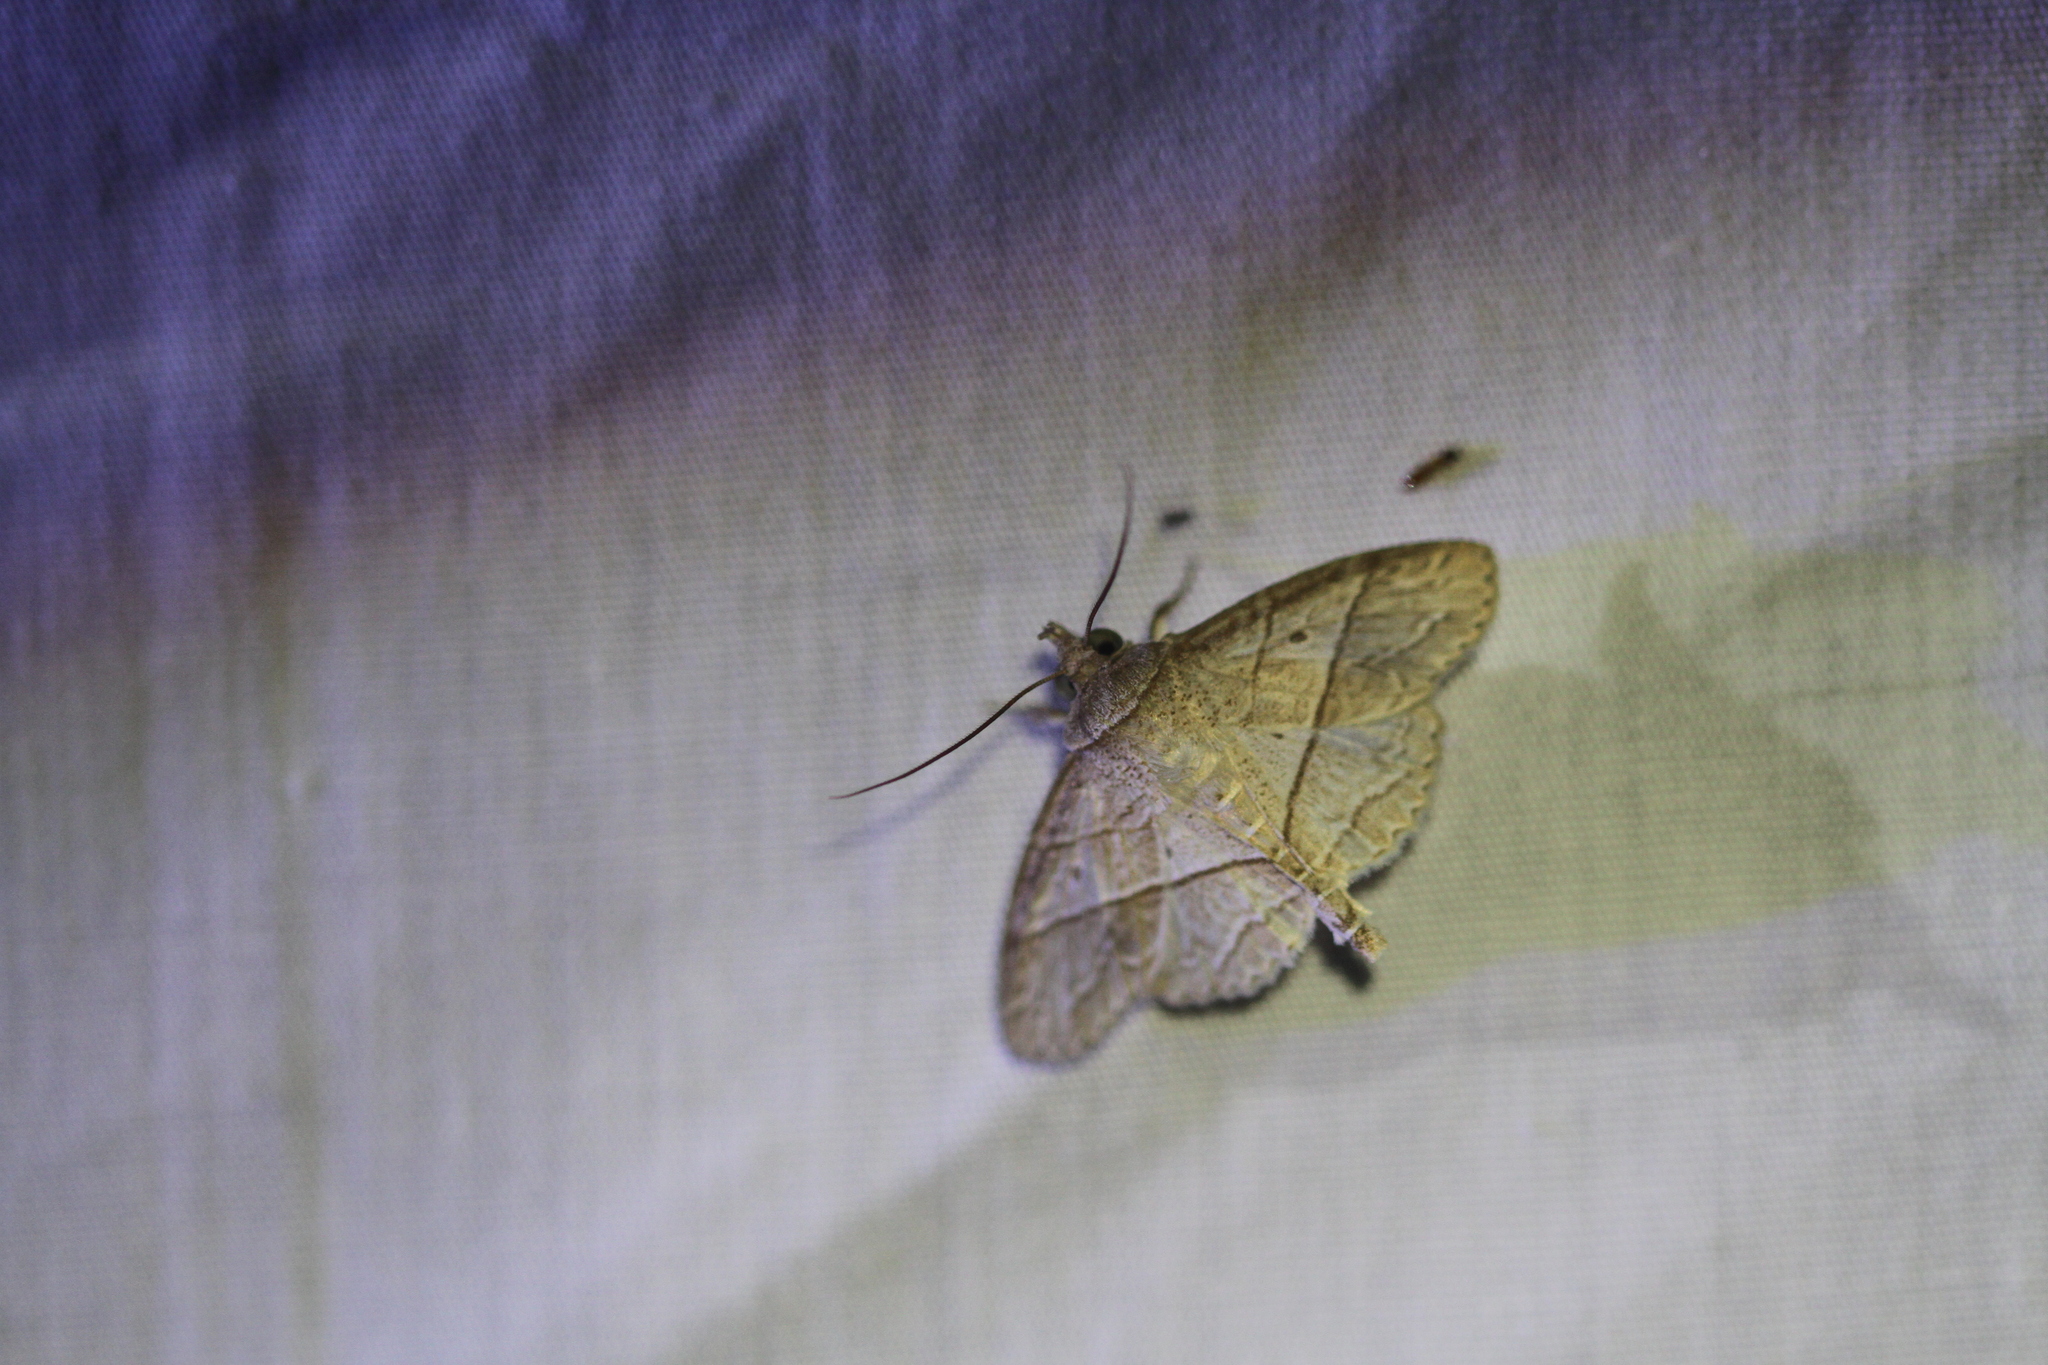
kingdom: Animalia
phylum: Arthropoda
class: Insecta
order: Lepidoptera
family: Erebidae
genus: Antiblemma
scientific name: Antiblemma deois
